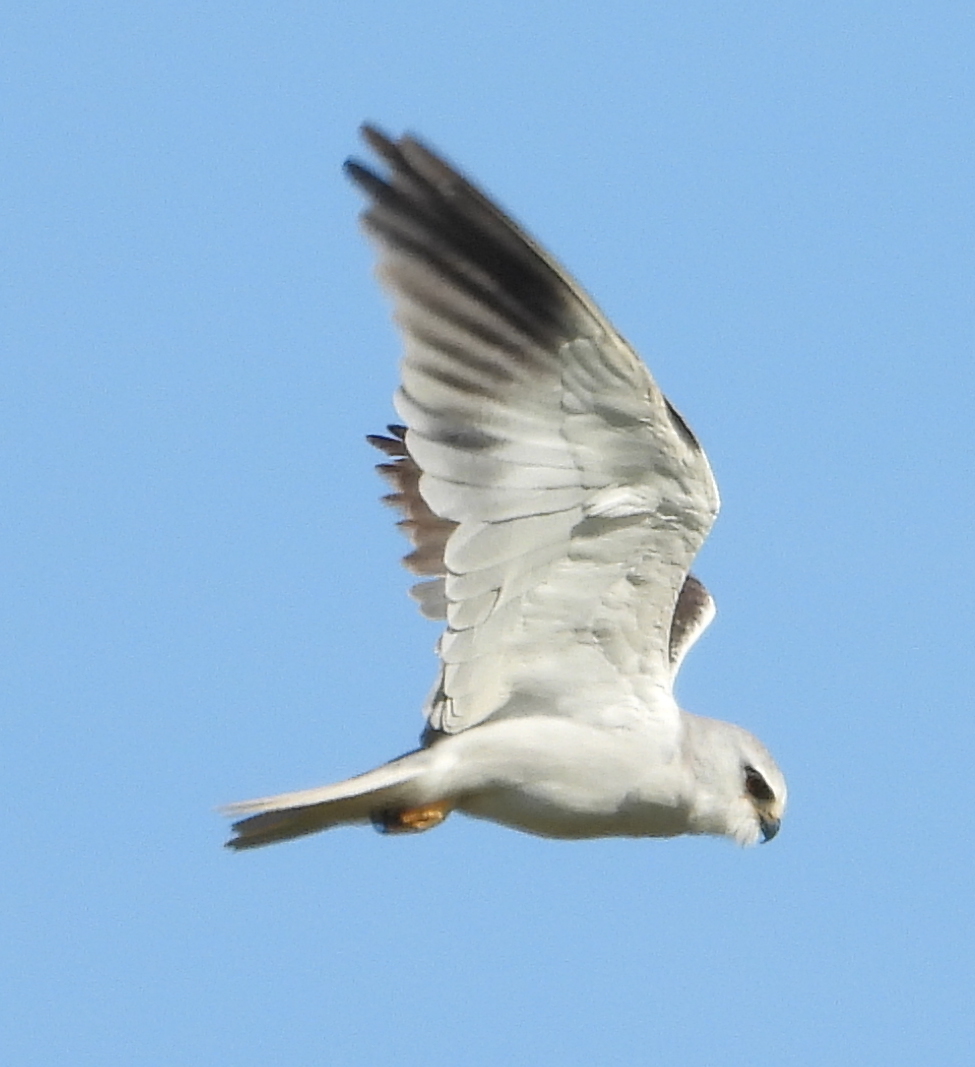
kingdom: Animalia
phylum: Chordata
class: Aves
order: Accipitriformes
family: Accipitridae
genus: Elanus
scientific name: Elanus caeruleus
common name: Black-winged kite
